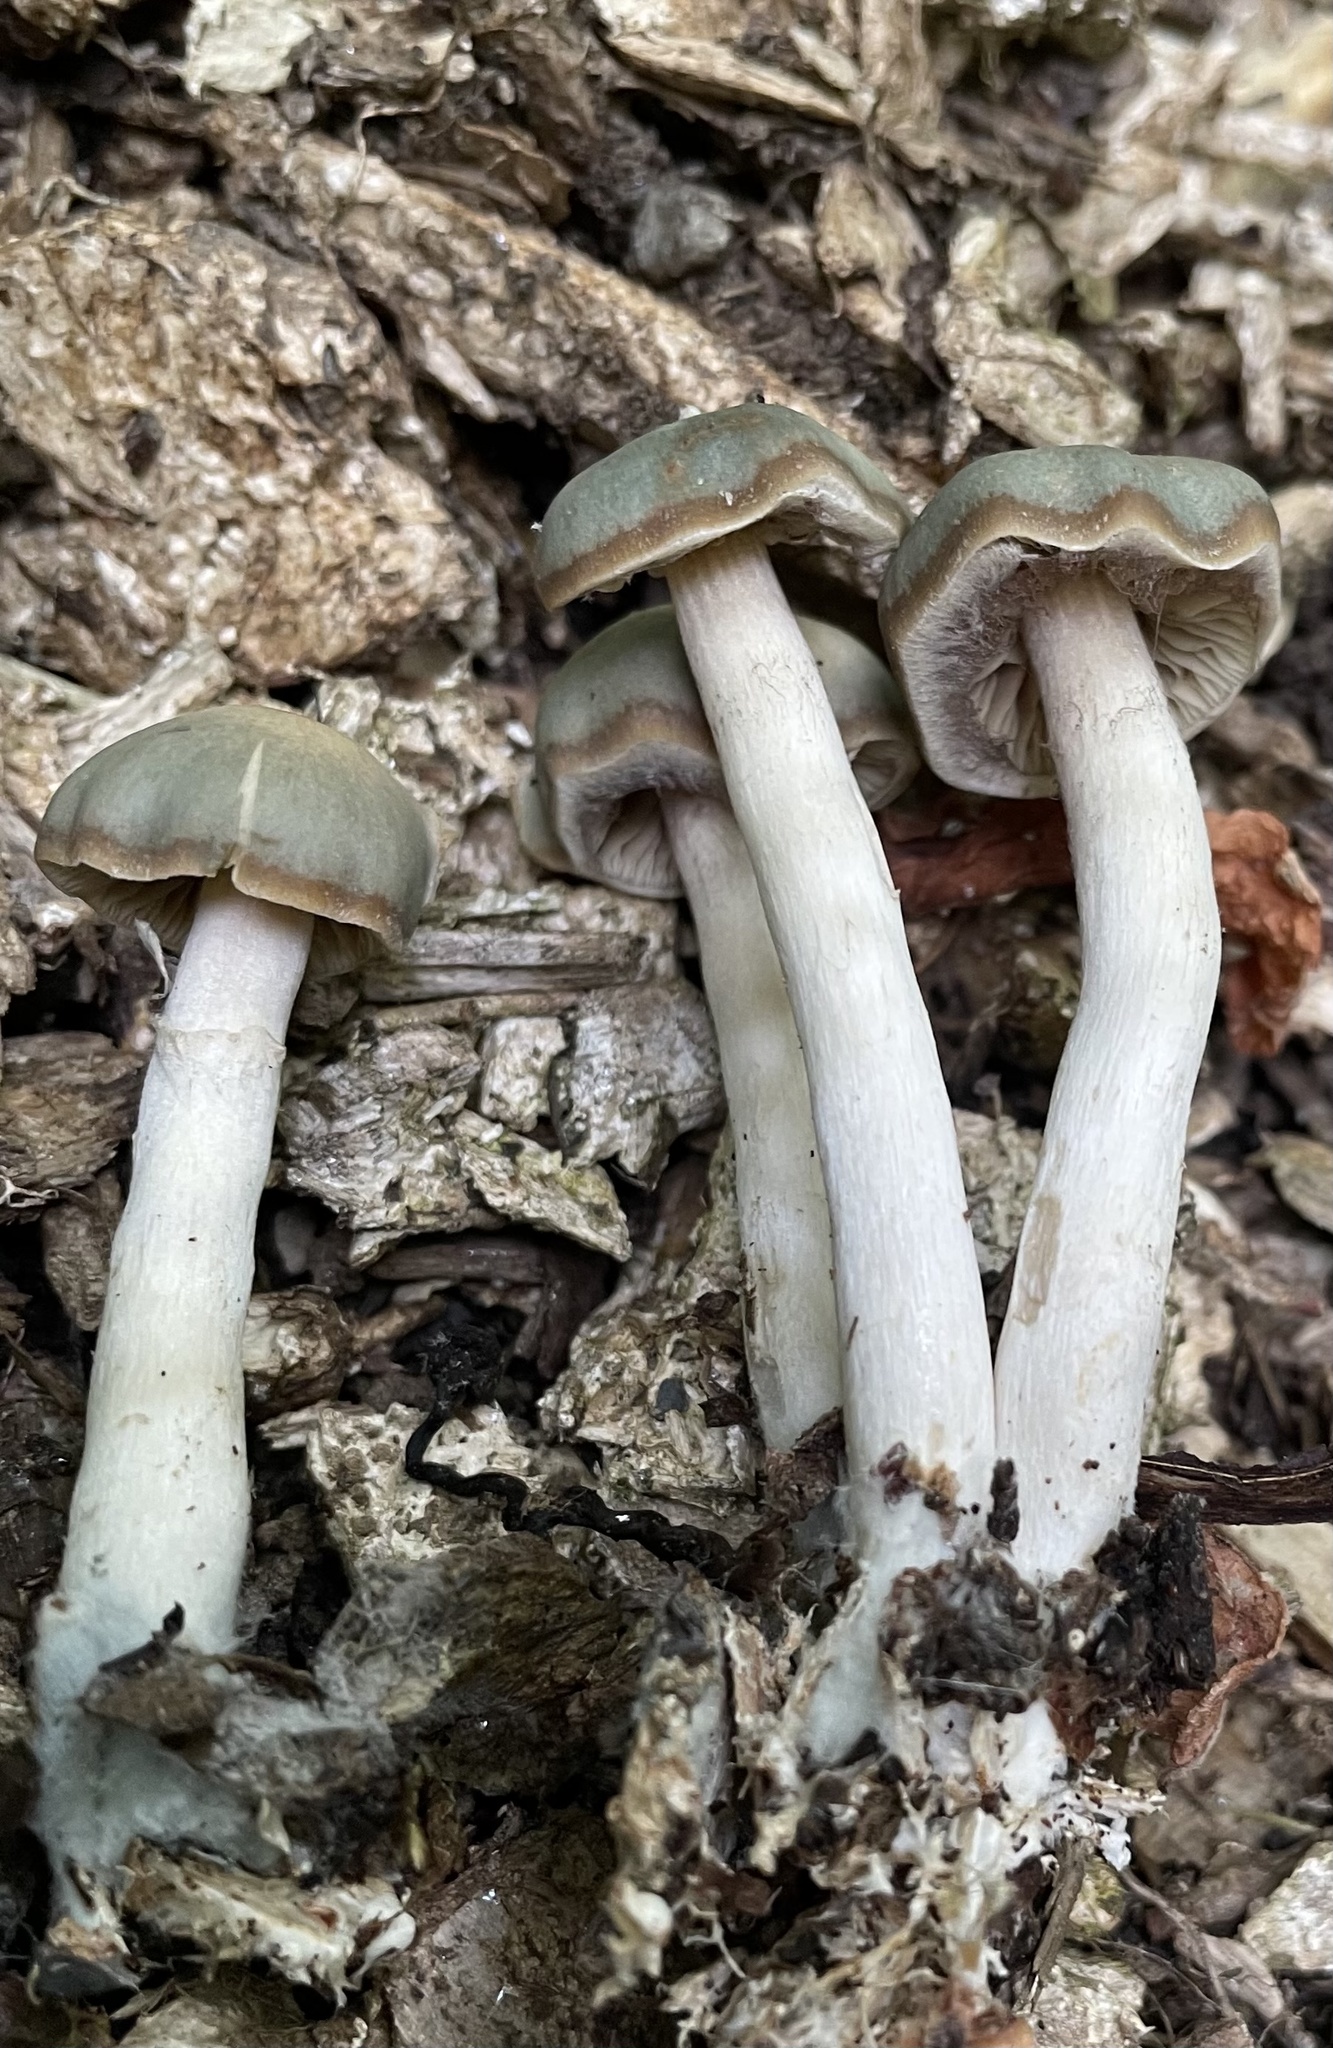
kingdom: Fungi
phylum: Basidiomycota
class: Agaricomycetes
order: Agaricales
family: Hymenogastraceae
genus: Psilocybe
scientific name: Psilocybe ovoideocystidiata
